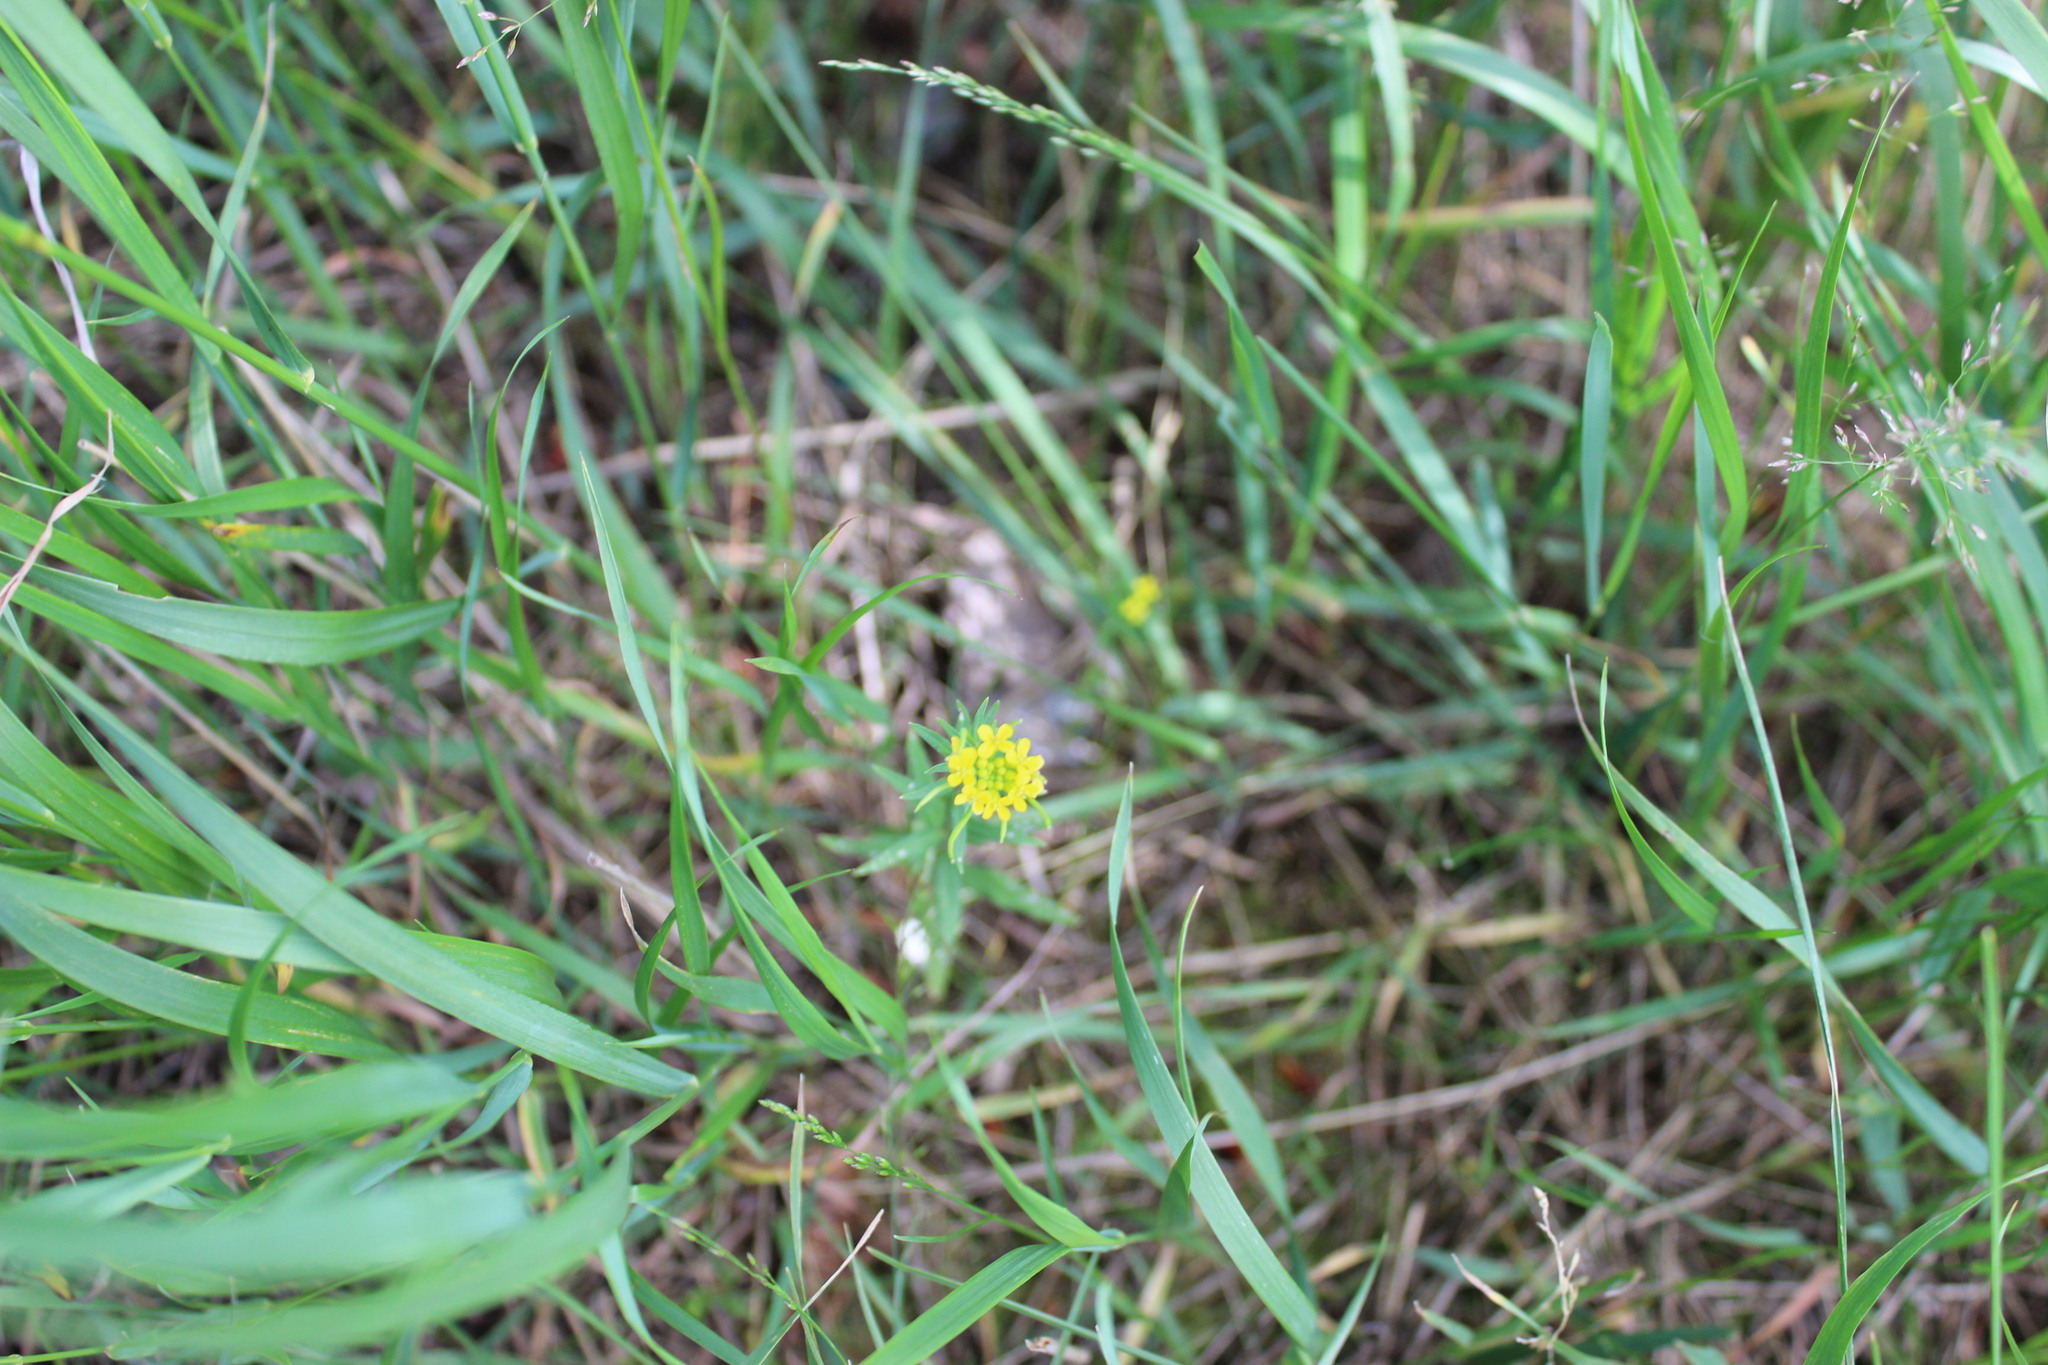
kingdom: Plantae
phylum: Tracheophyta
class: Magnoliopsida
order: Brassicales
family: Brassicaceae
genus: Erysimum
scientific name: Erysimum cheiranthoides
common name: Treacle mustard
